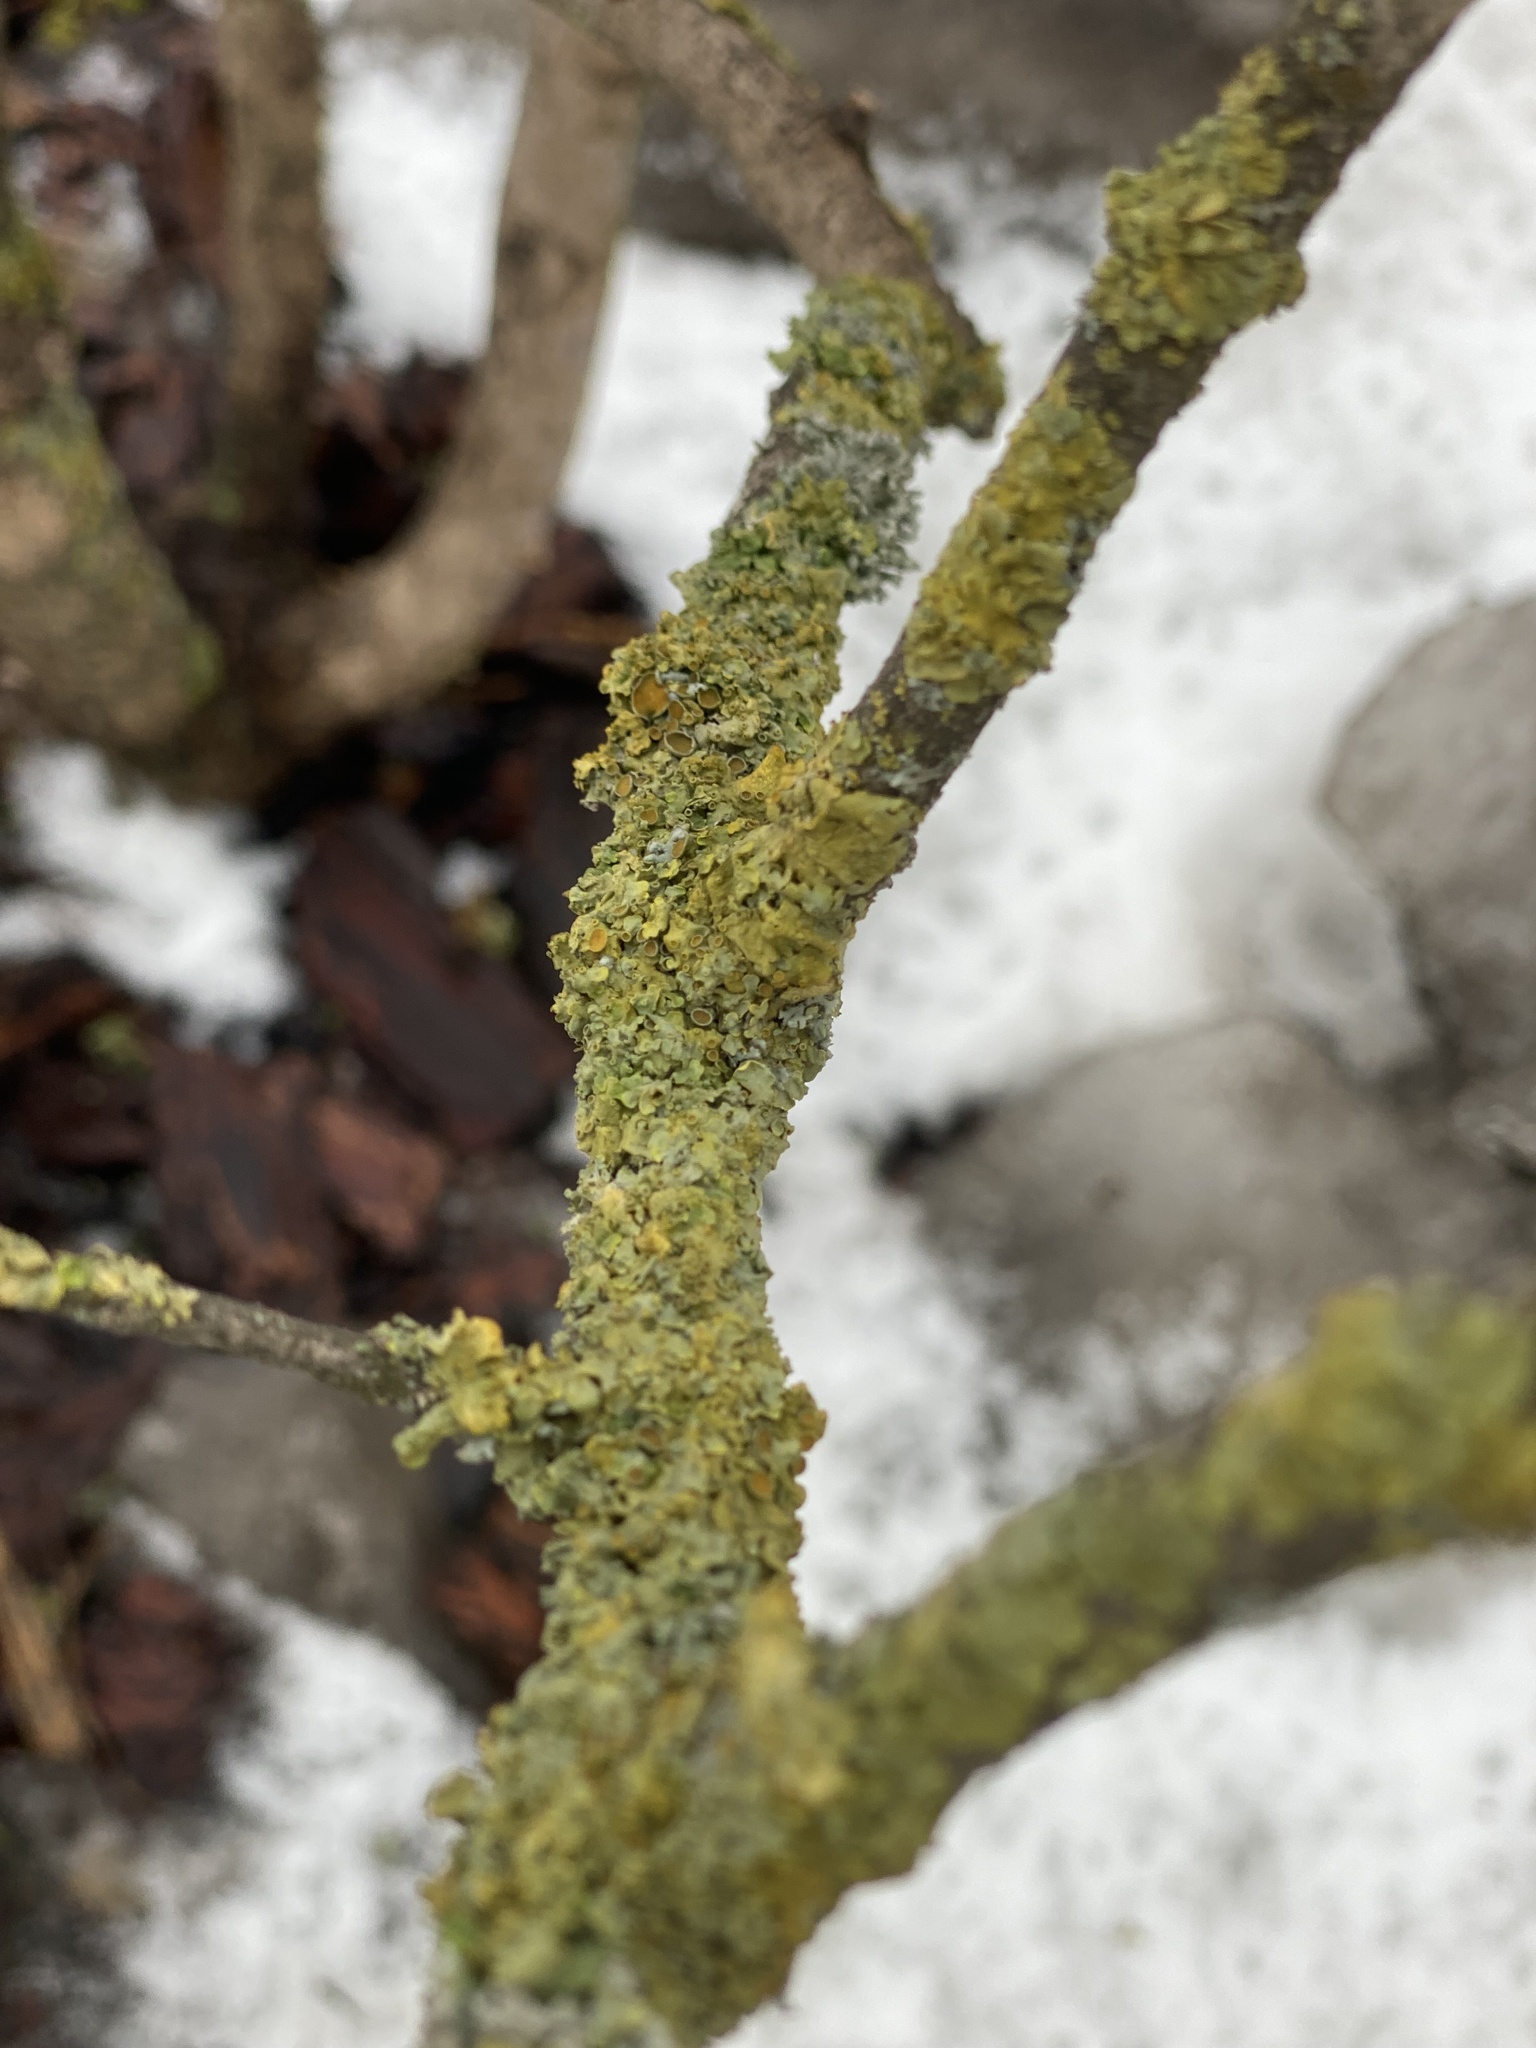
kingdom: Fungi
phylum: Ascomycota
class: Lecanoromycetes
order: Teloschistales
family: Teloschistaceae
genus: Xanthoria
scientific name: Xanthoria parietina
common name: Common orange lichen
